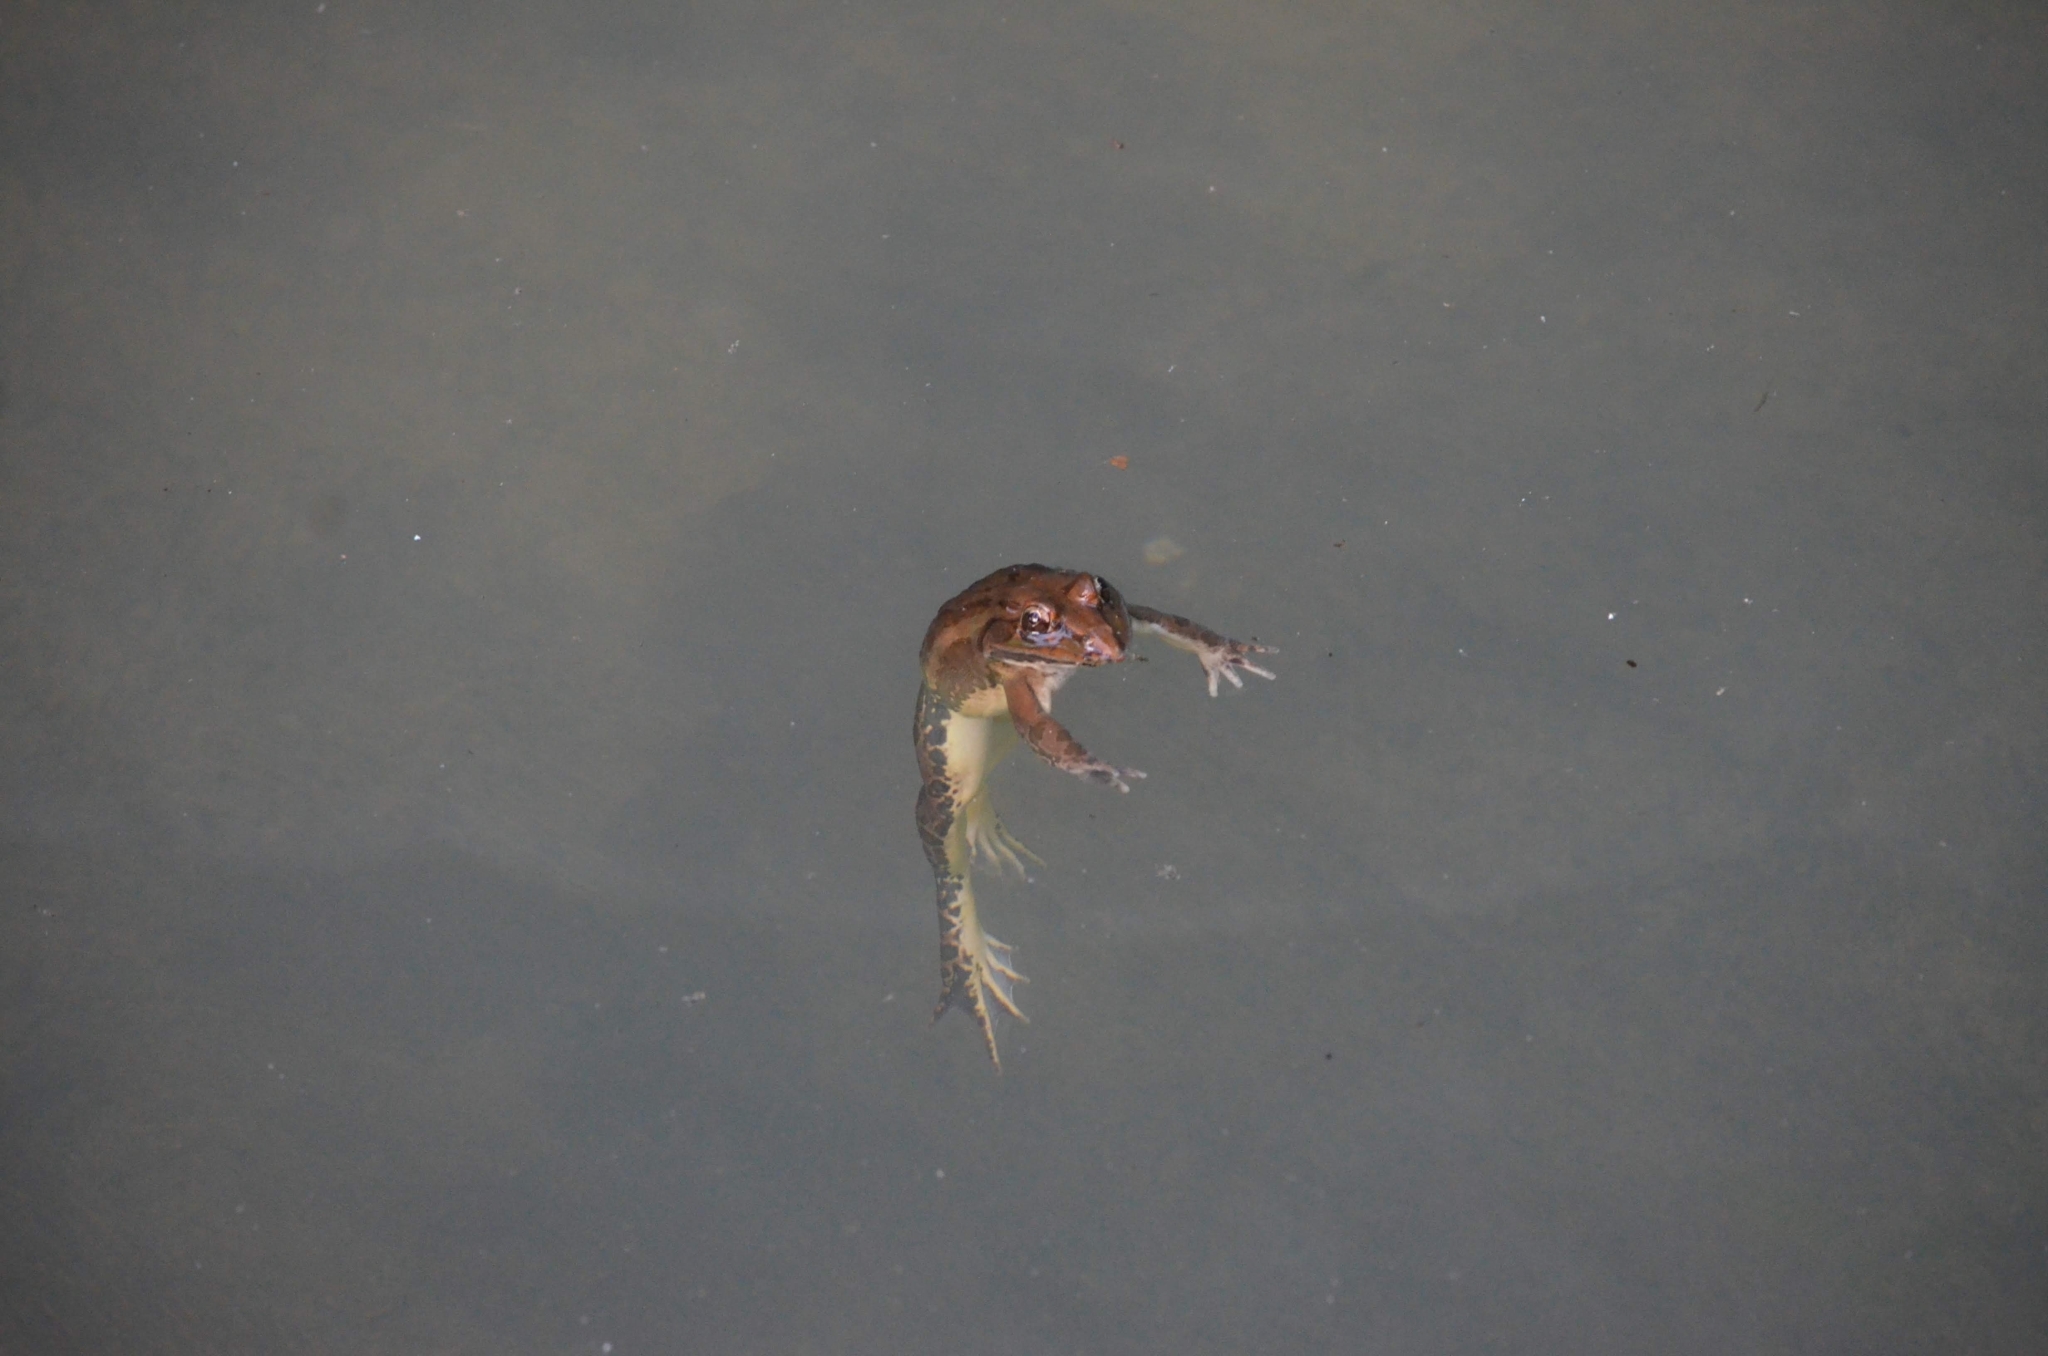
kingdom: Animalia
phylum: Chordata
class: Amphibia
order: Anura
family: Dicroglossidae
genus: Hoplobatrachus
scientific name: Hoplobatrachus tigerinus
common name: Indian bullfrog
